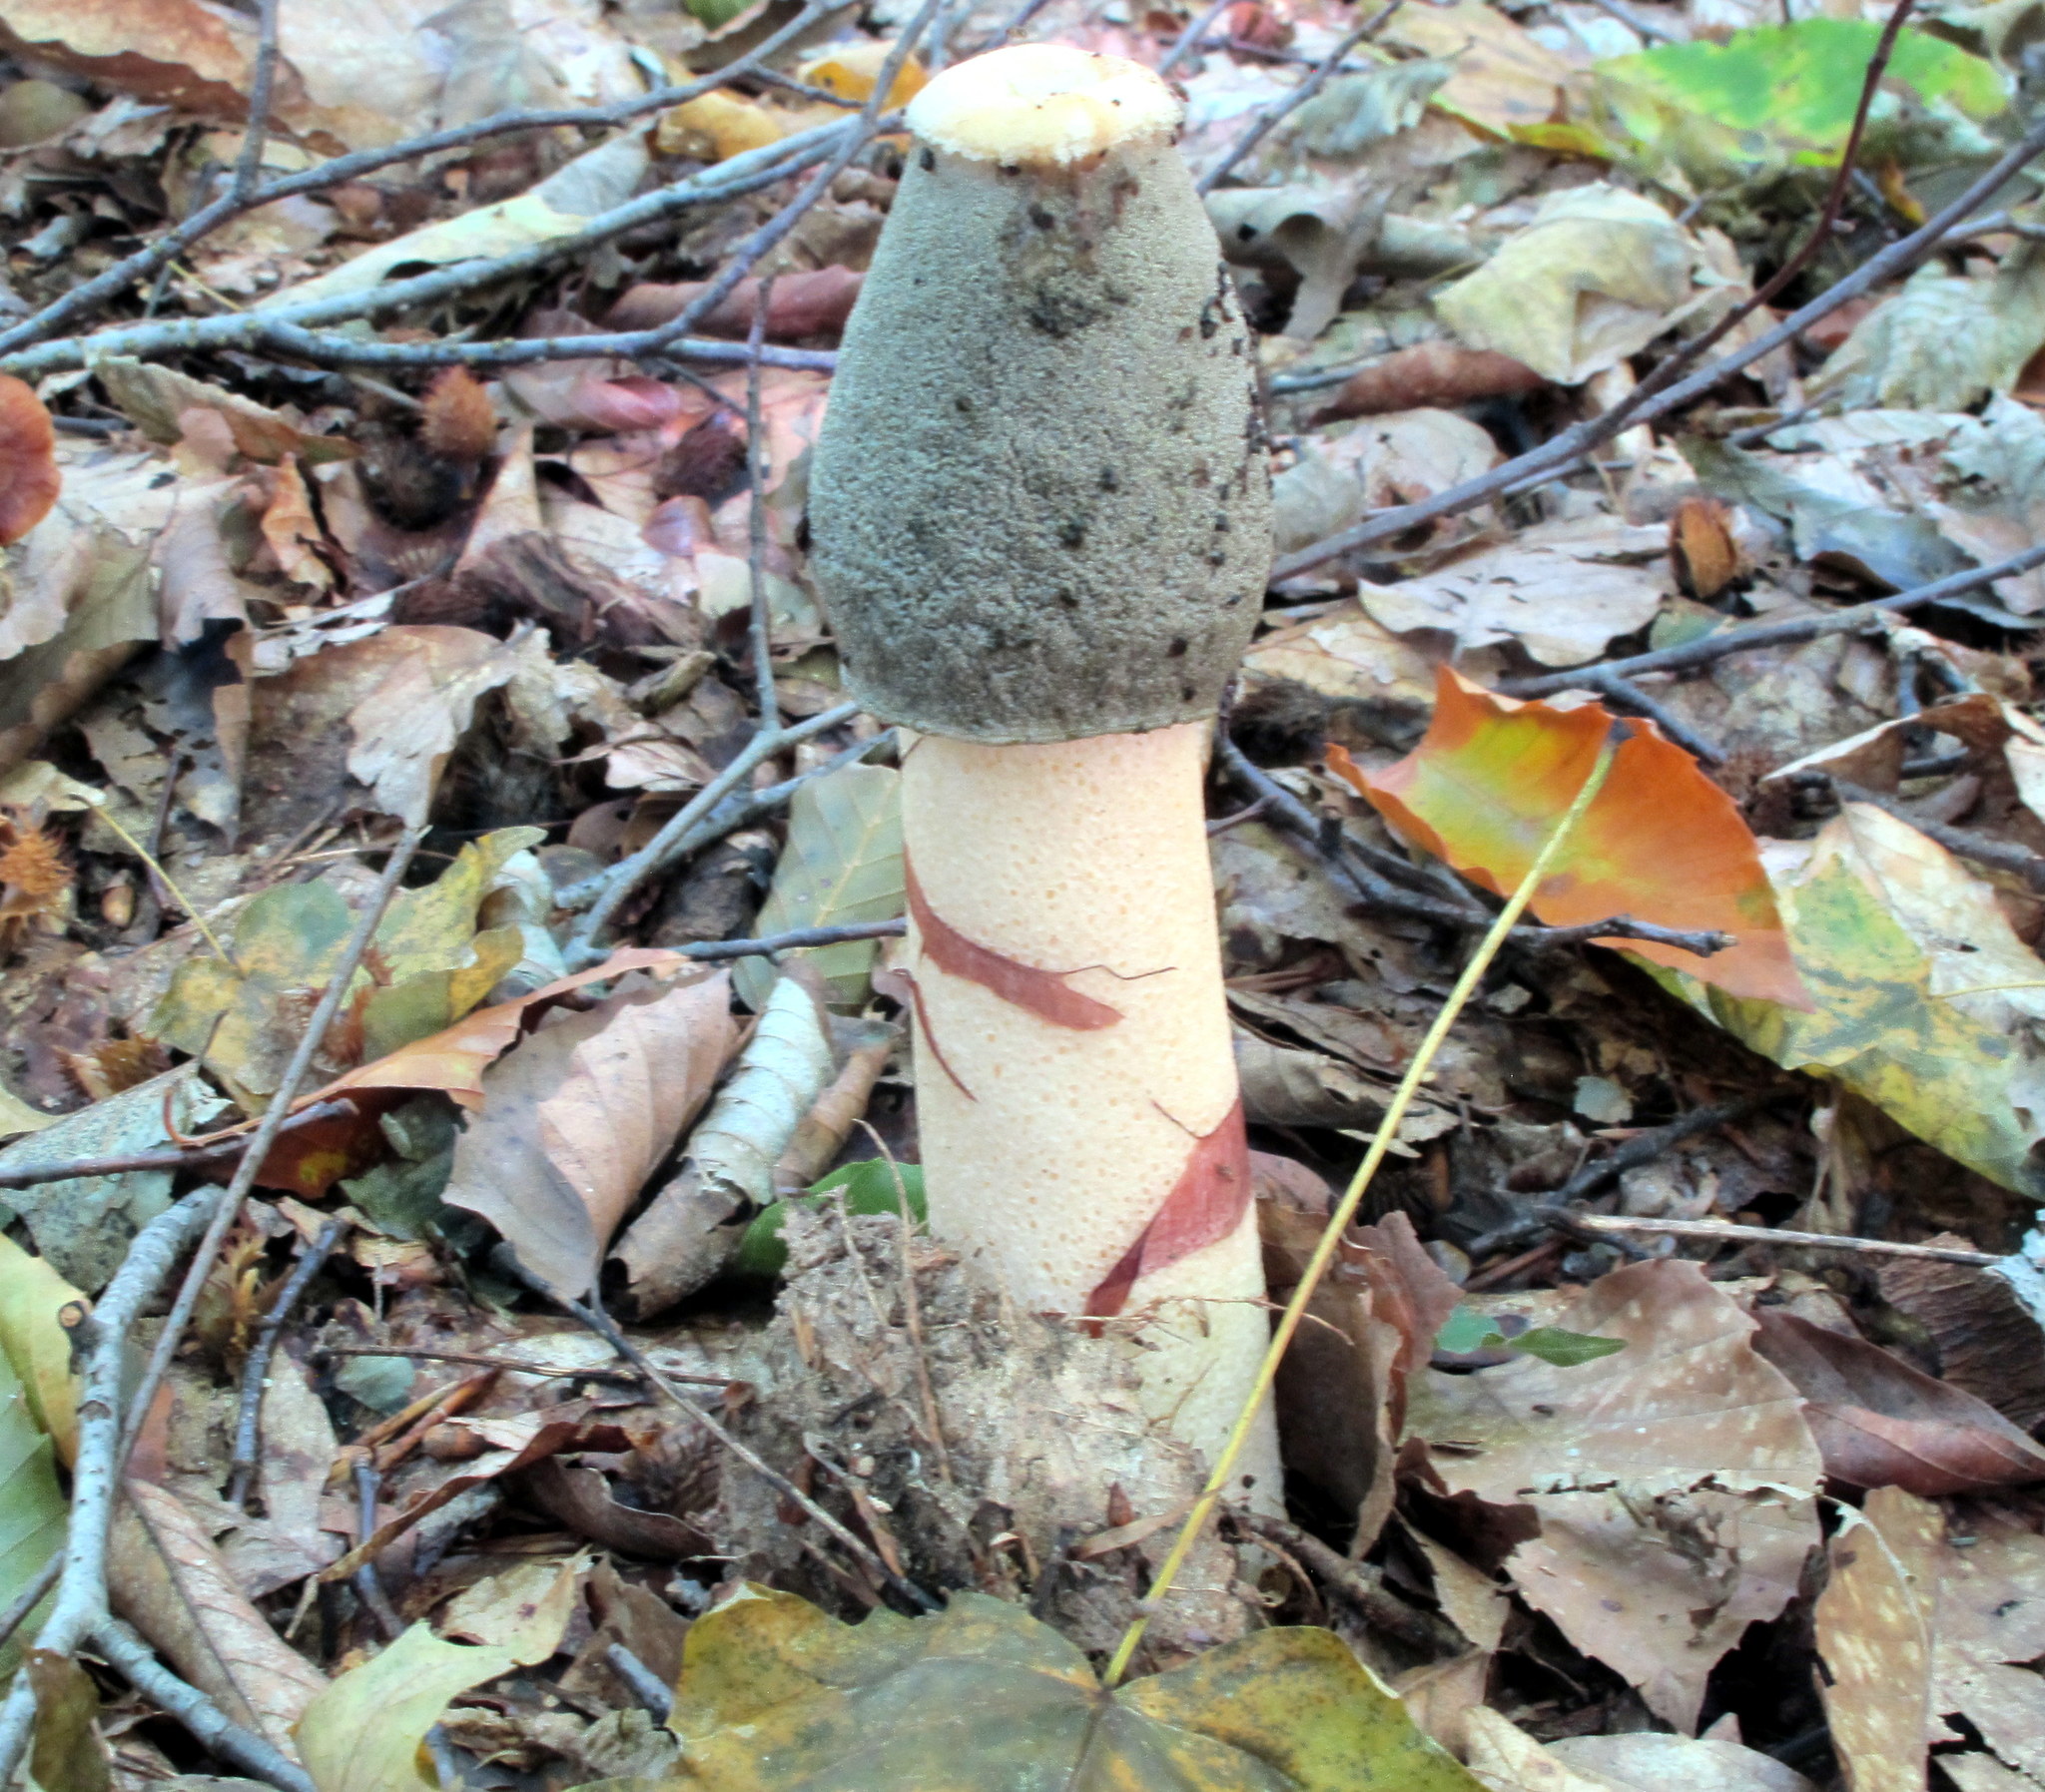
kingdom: Fungi
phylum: Basidiomycota
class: Agaricomycetes
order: Phallales
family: Phallaceae
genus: Phallus
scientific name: Phallus ravenelii
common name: Ravenel's stinkhorn
